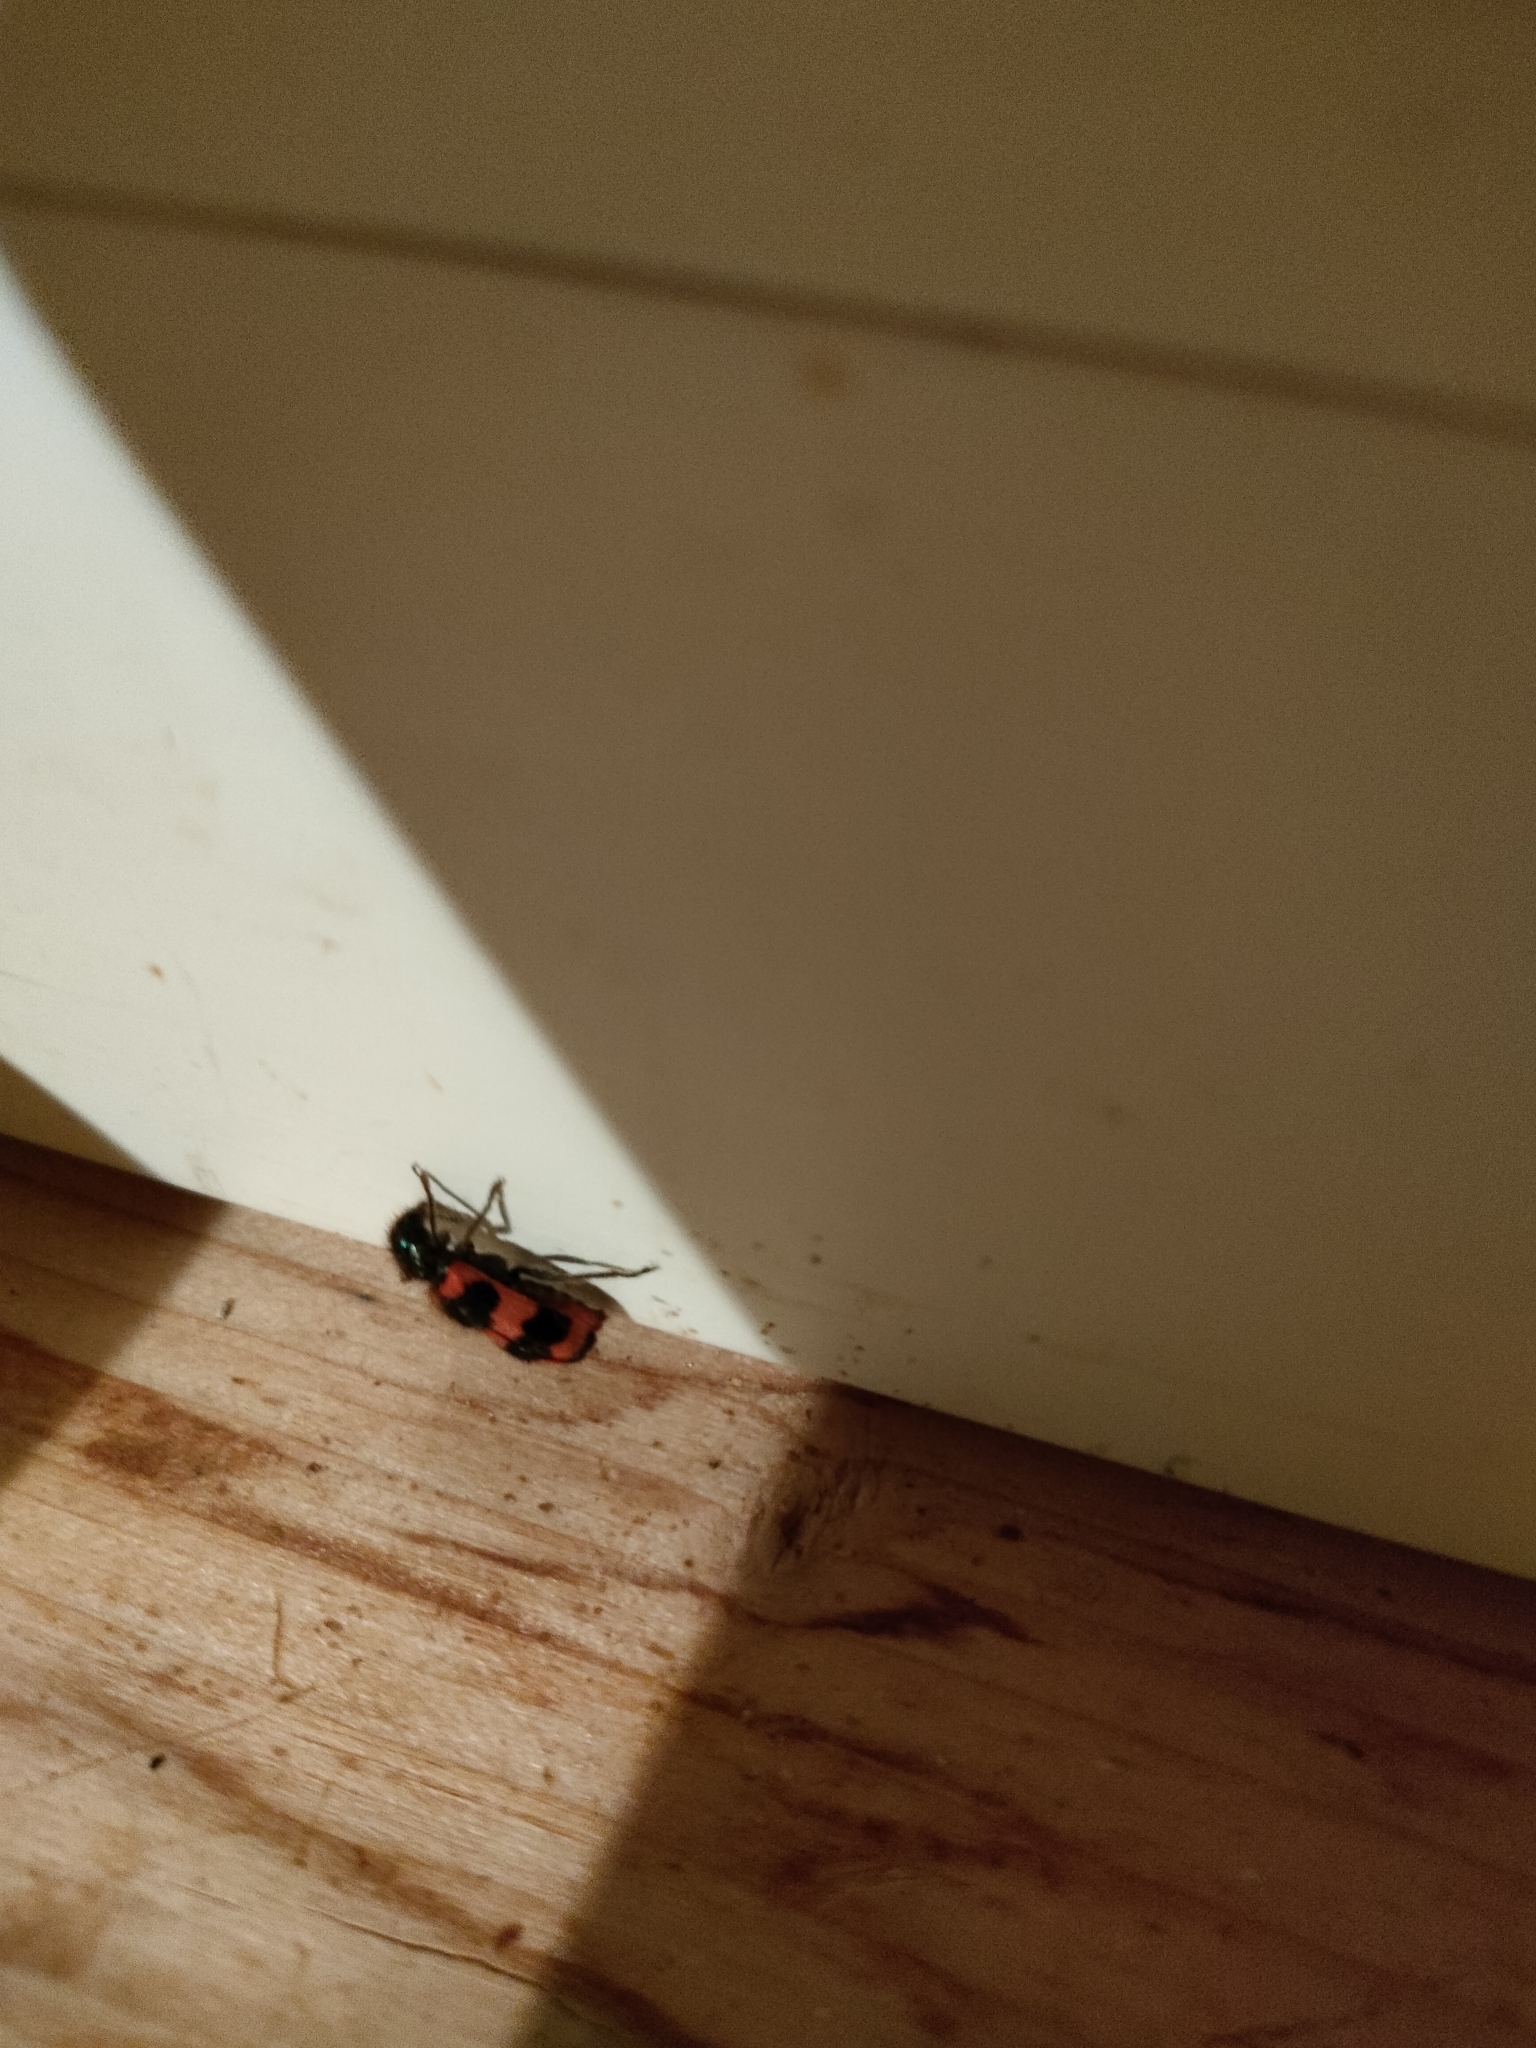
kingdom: Animalia
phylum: Arthropoda
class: Insecta
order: Coleoptera
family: Cleridae
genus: Trichodes
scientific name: Trichodes apiarius
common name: Bee-eating beetle
